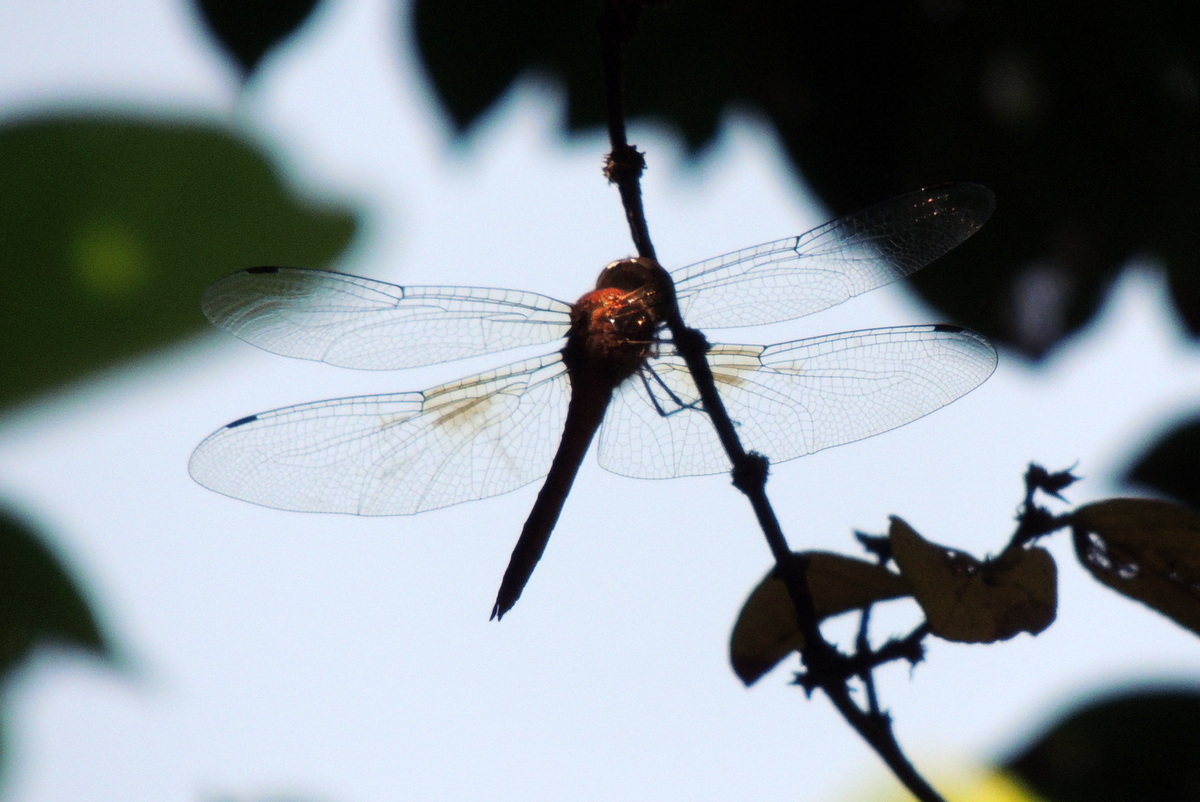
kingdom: Animalia
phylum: Arthropoda
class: Insecta
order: Odonata
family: Libellulidae
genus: Tholymis
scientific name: Tholymis tillarga
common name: Coral-tailed cloud wing
